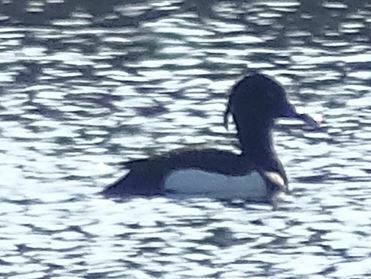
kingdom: Animalia
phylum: Chordata
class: Aves
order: Anseriformes
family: Anatidae
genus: Aythya
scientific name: Aythya fuligula
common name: Tufted duck
